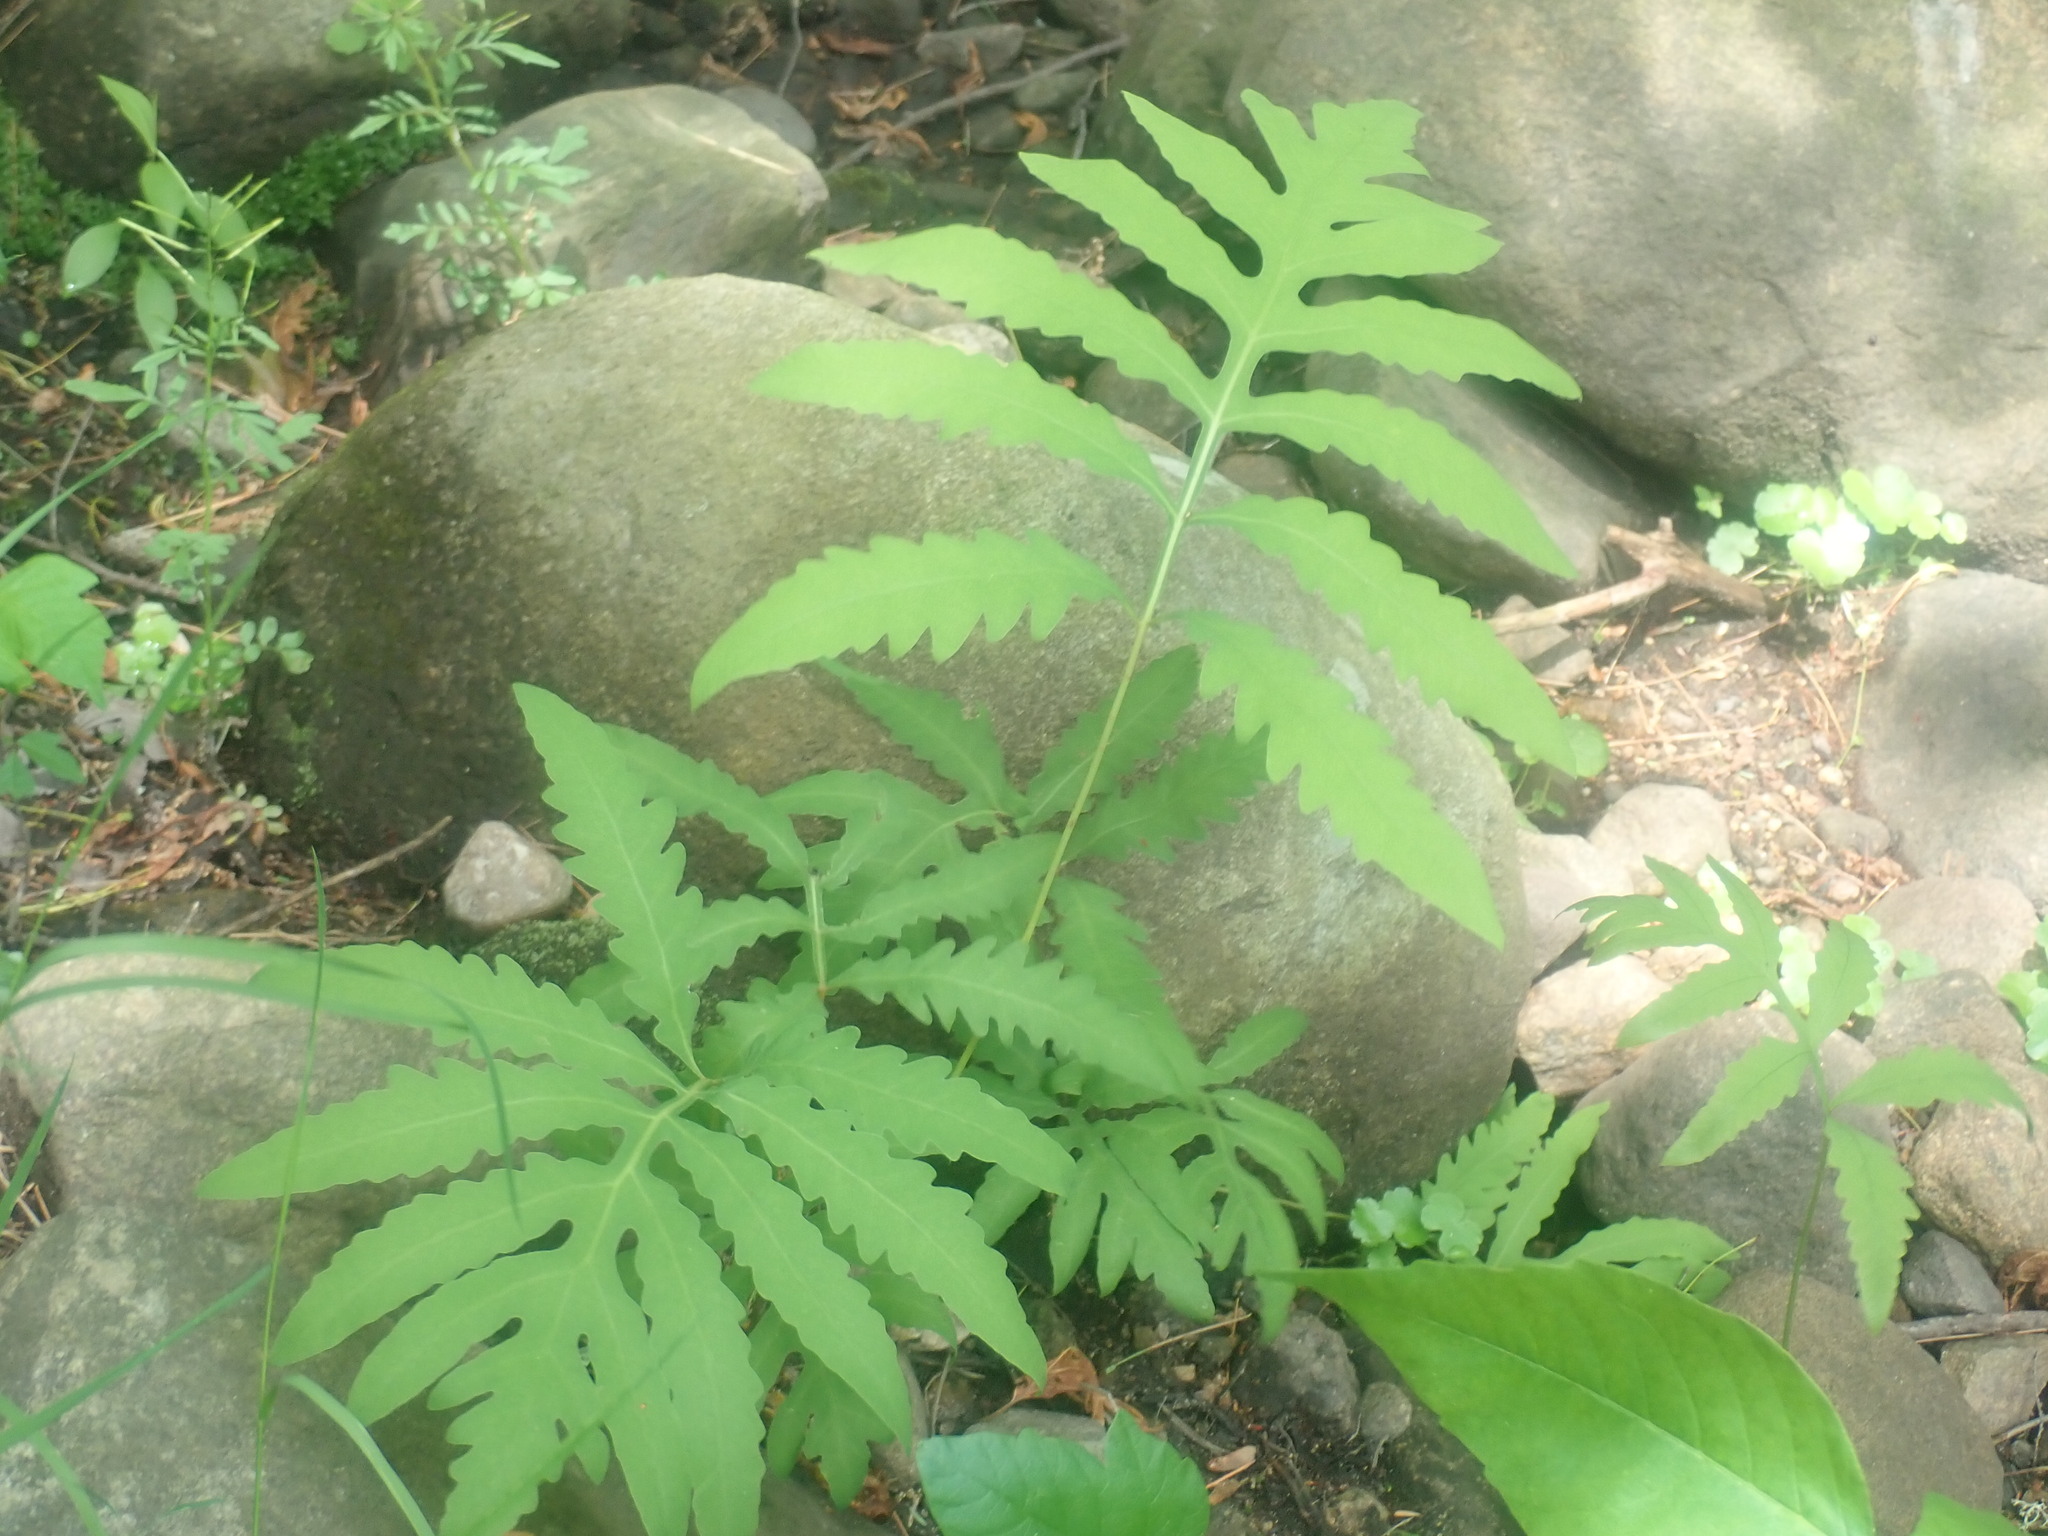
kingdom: Plantae
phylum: Tracheophyta
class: Polypodiopsida
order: Polypodiales
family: Onocleaceae
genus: Onoclea
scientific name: Onoclea sensibilis
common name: Sensitive fern
